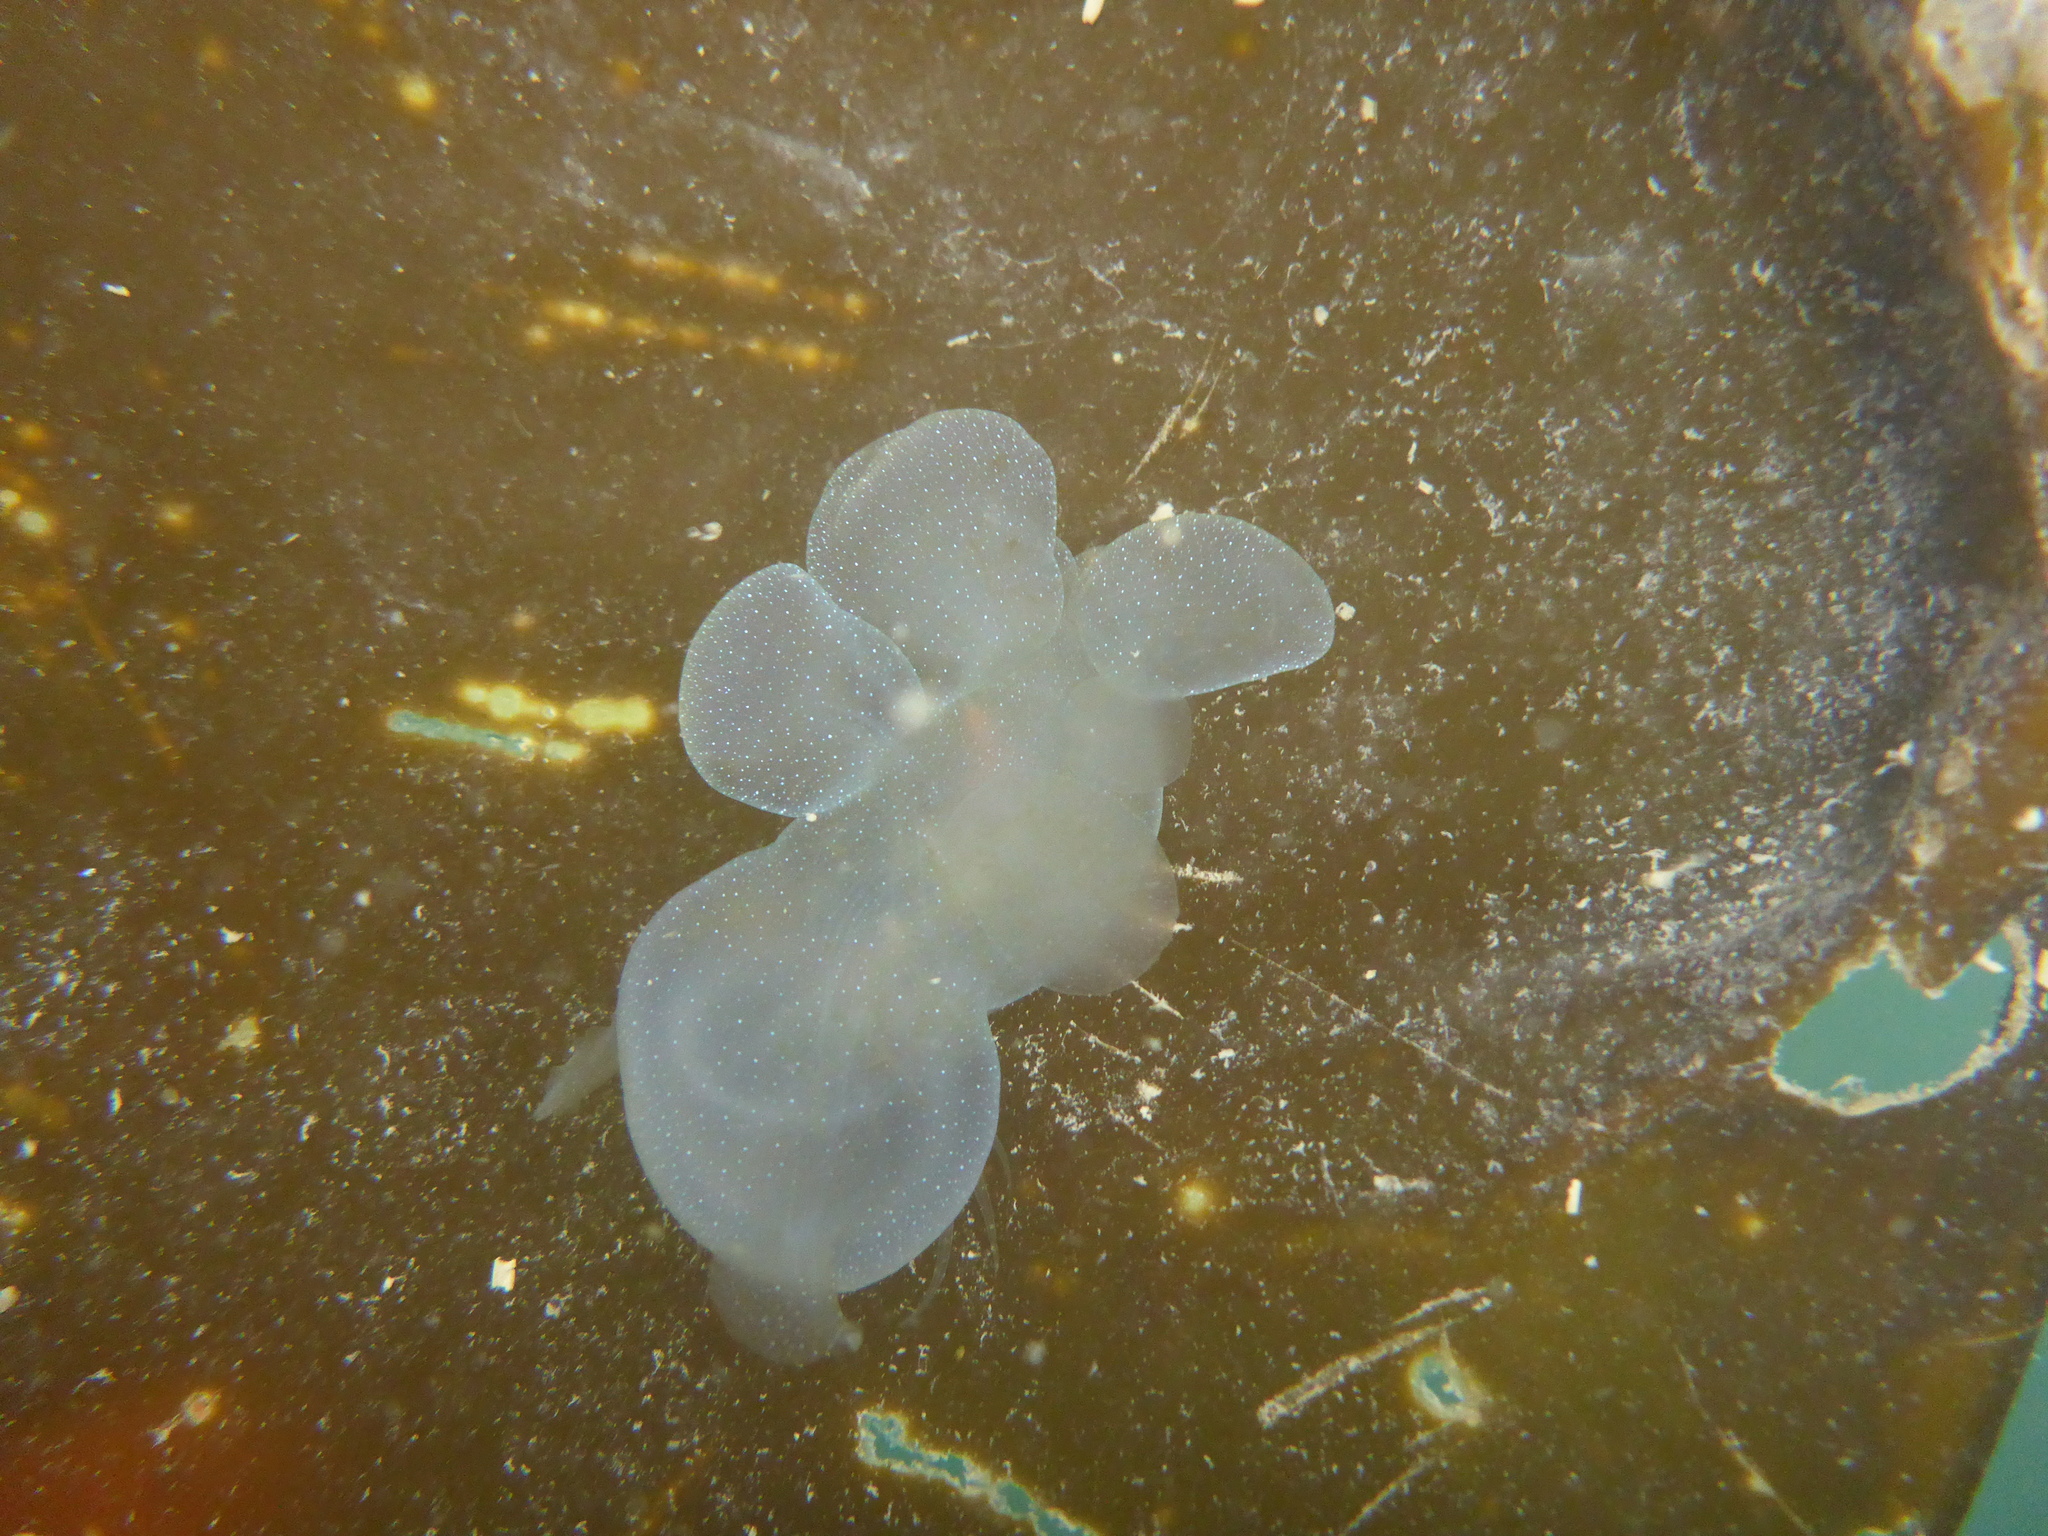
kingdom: Animalia
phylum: Mollusca
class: Gastropoda
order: Nudibranchia
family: Tethydidae
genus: Melibe
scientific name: Melibe leonina
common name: Lion nudibranch
